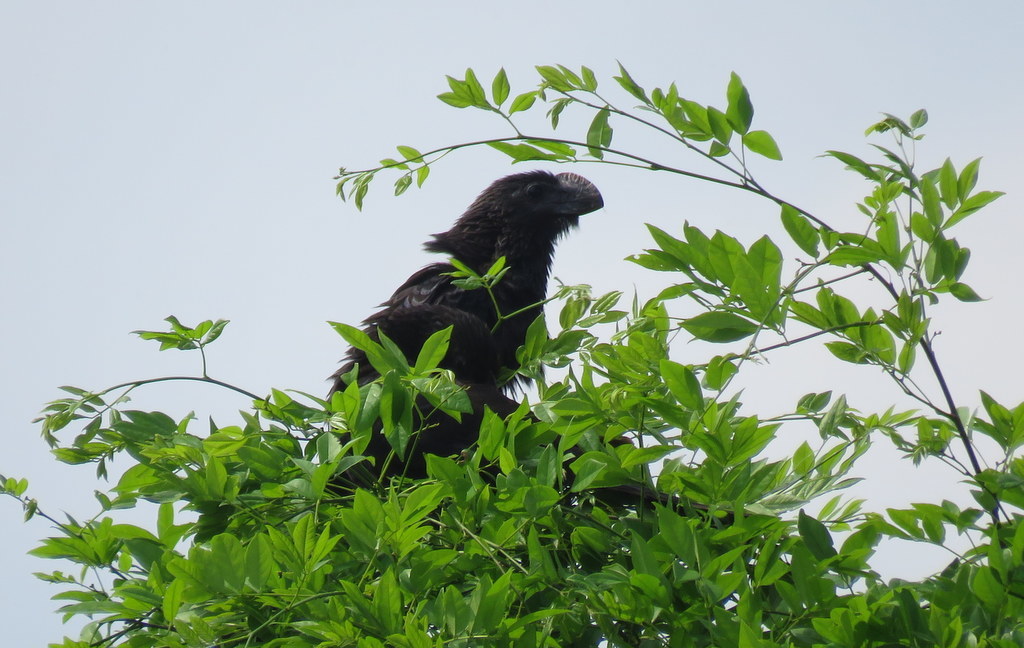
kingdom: Animalia
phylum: Chordata
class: Aves
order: Cuculiformes
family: Cuculidae
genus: Crotophaga
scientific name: Crotophaga ani
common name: Smooth-billed ani
